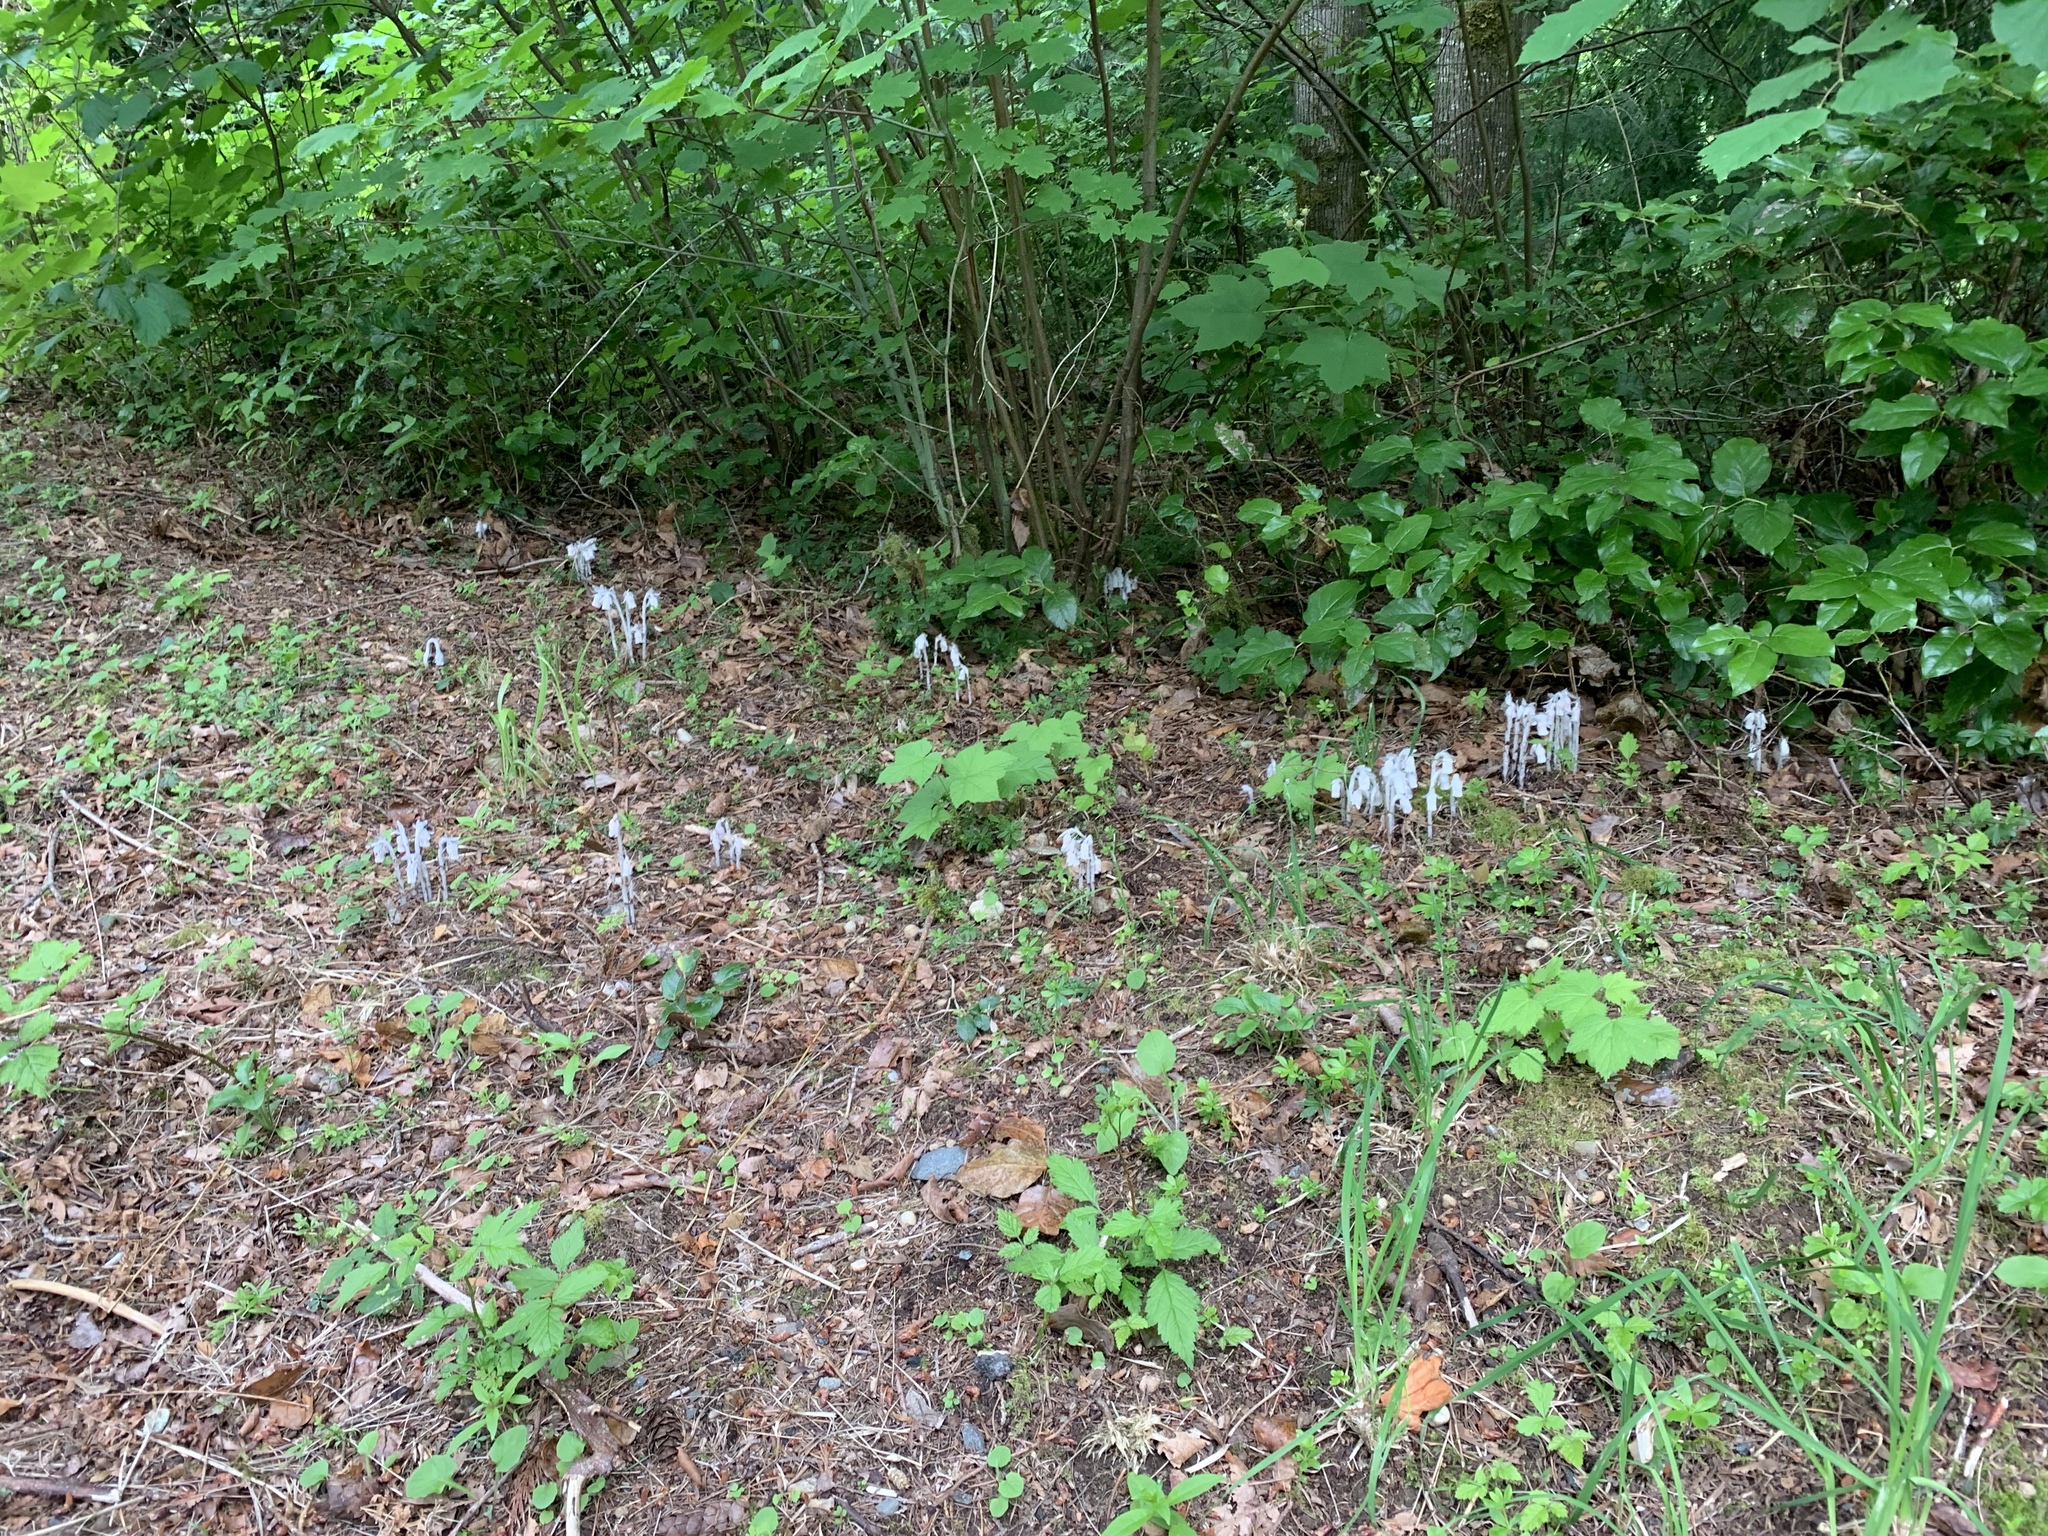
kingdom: Plantae
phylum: Tracheophyta
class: Magnoliopsida
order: Ericales
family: Ericaceae
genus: Monotropa
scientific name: Monotropa uniflora
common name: Convulsion root
